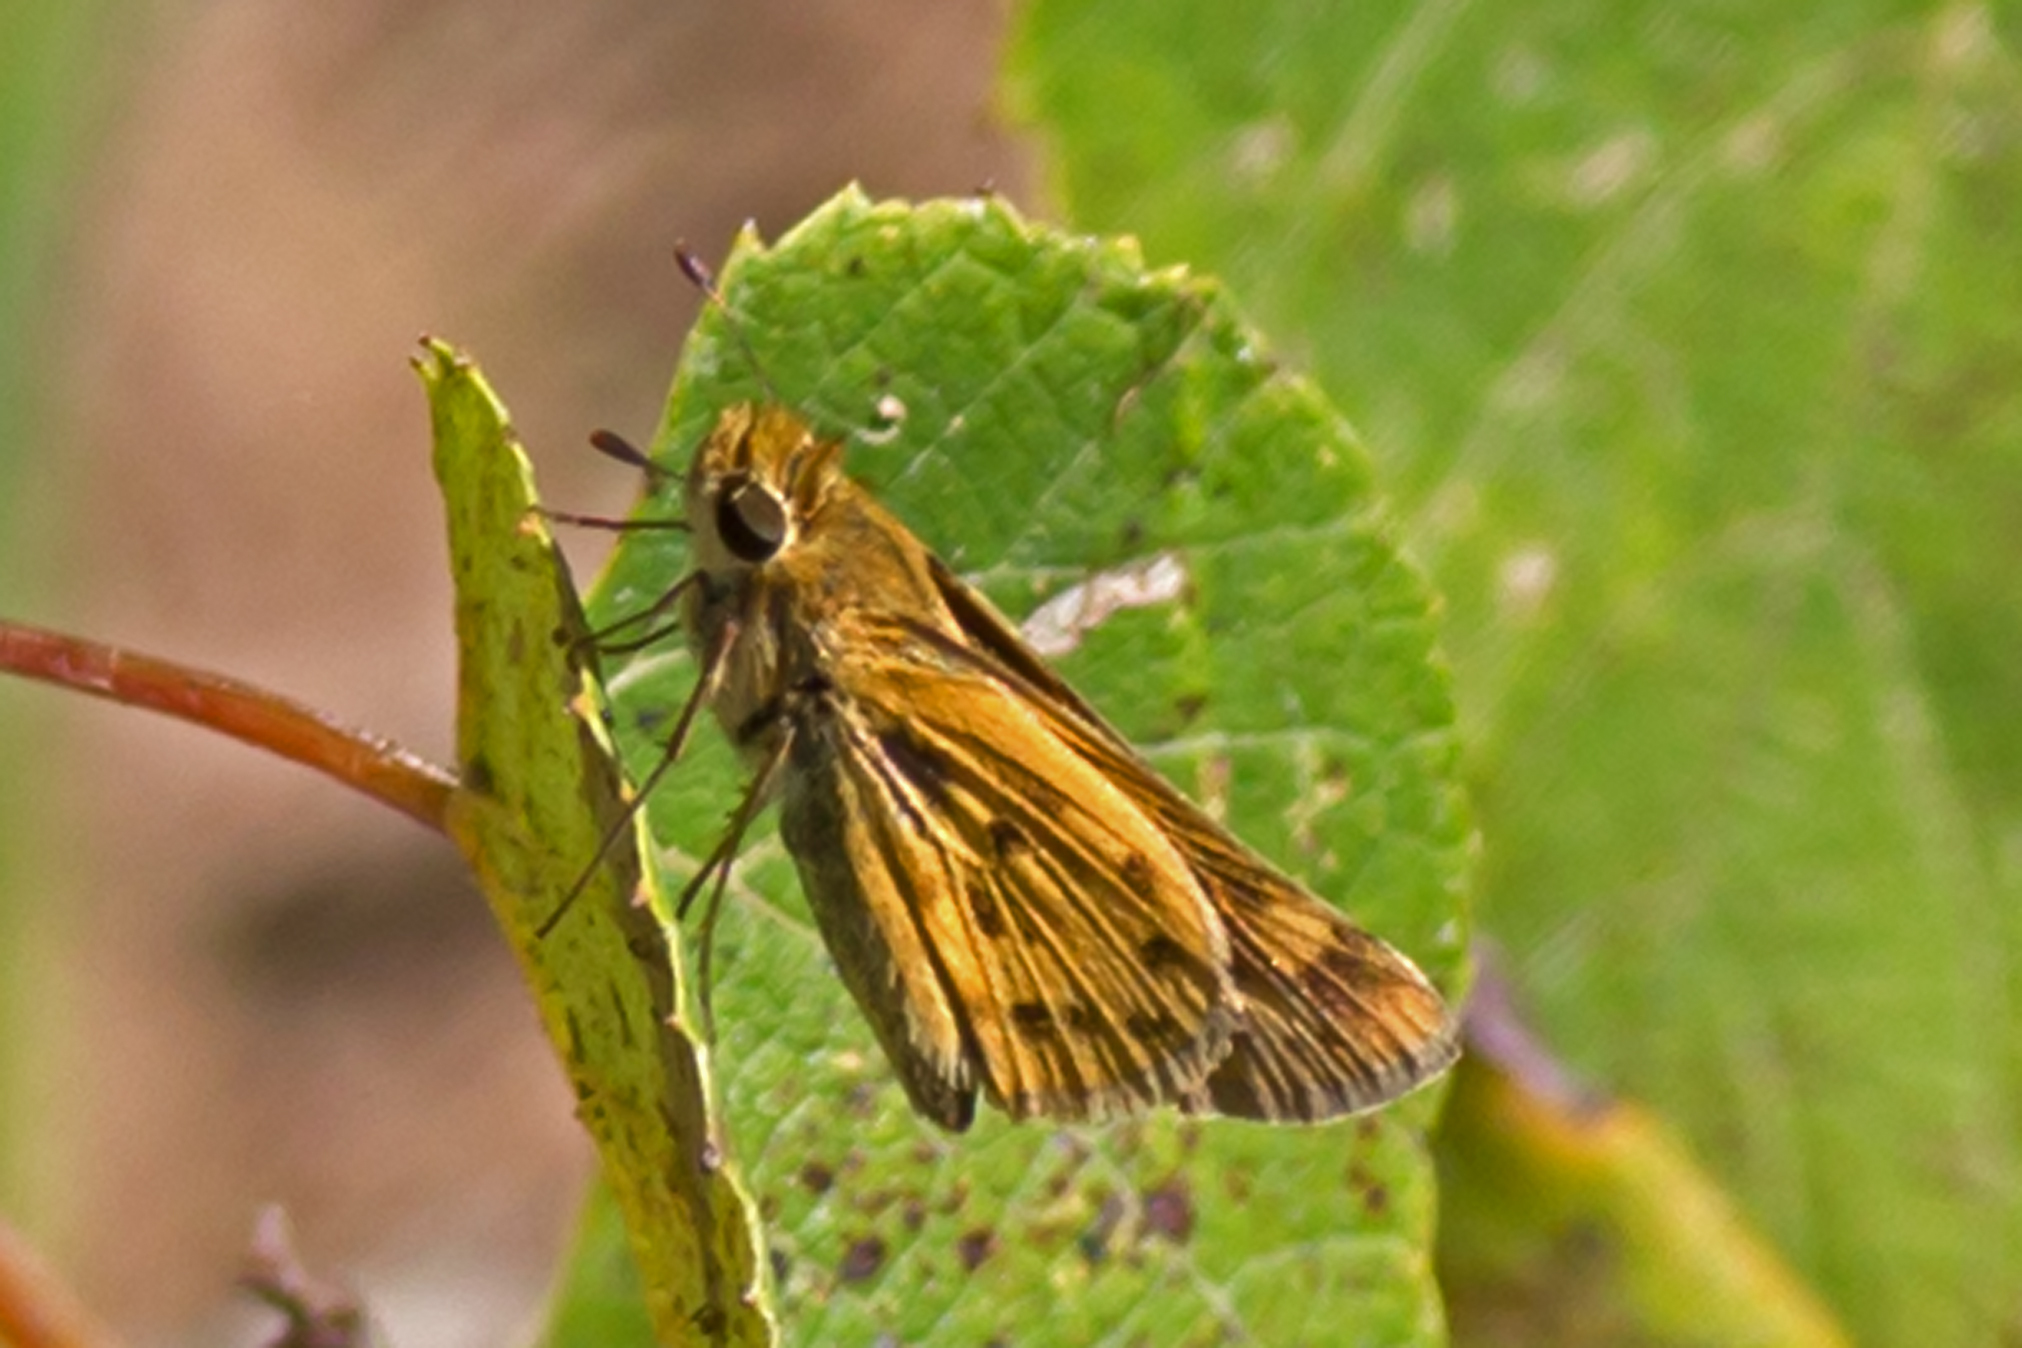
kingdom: Animalia
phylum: Arthropoda
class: Insecta
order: Lepidoptera
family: Hesperiidae
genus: Hylephila
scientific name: Hylephila phyleus
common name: Fiery skipper
